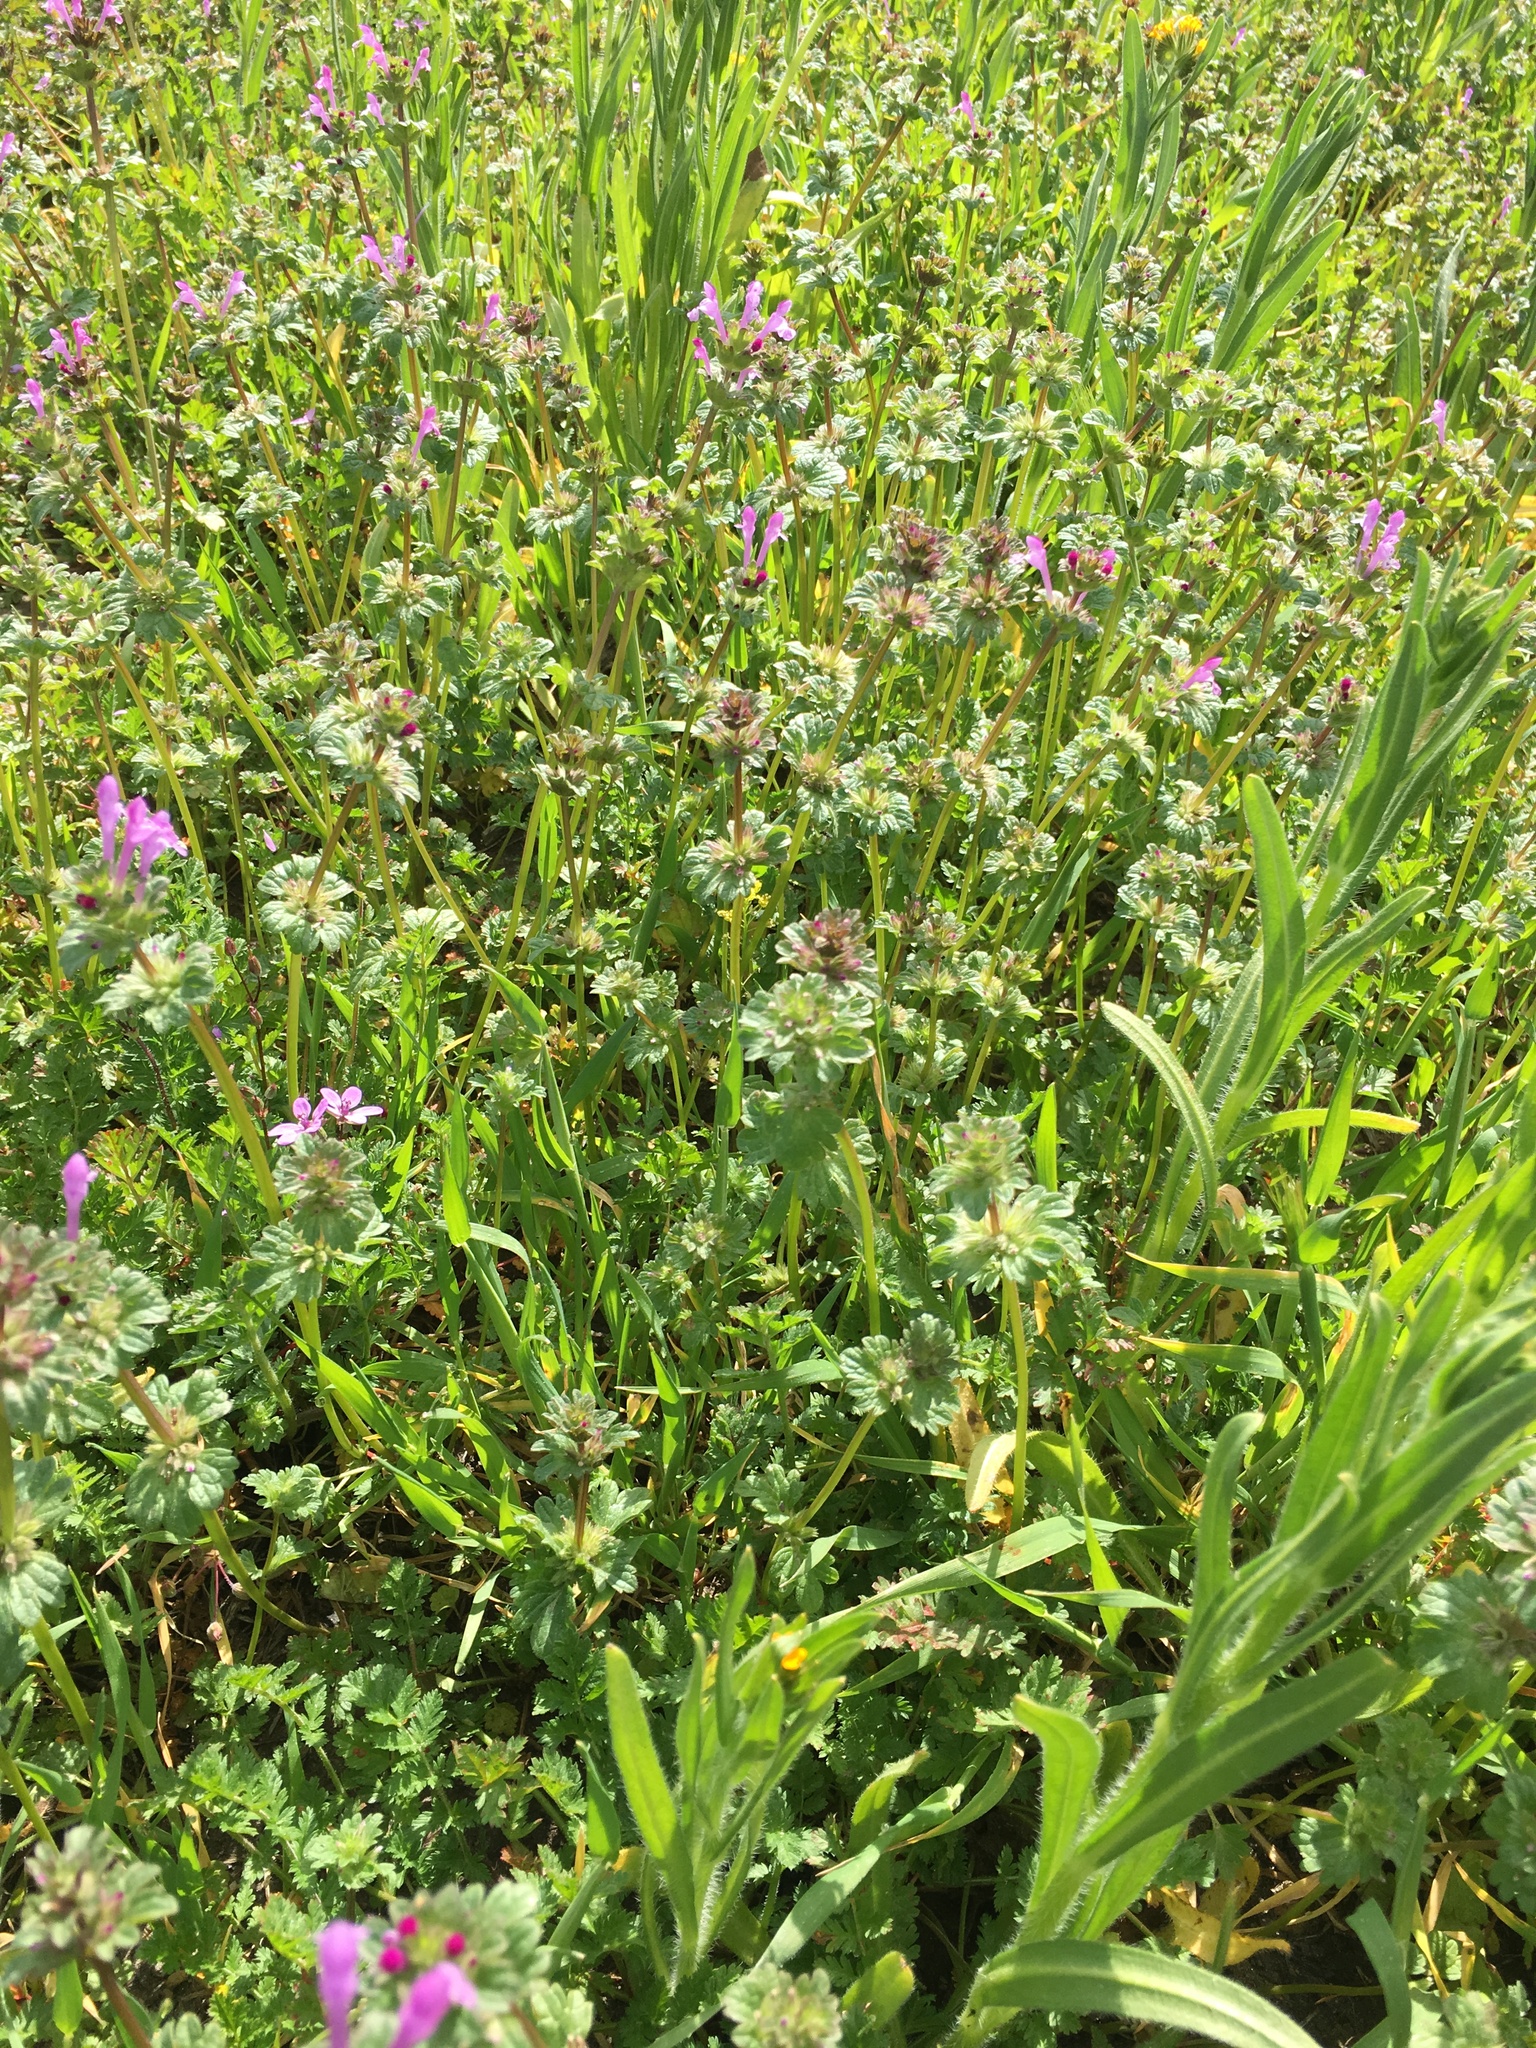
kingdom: Plantae
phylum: Tracheophyta
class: Magnoliopsida
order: Lamiales
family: Lamiaceae
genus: Lamium
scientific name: Lamium amplexicaule
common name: Henbit dead-nettle
